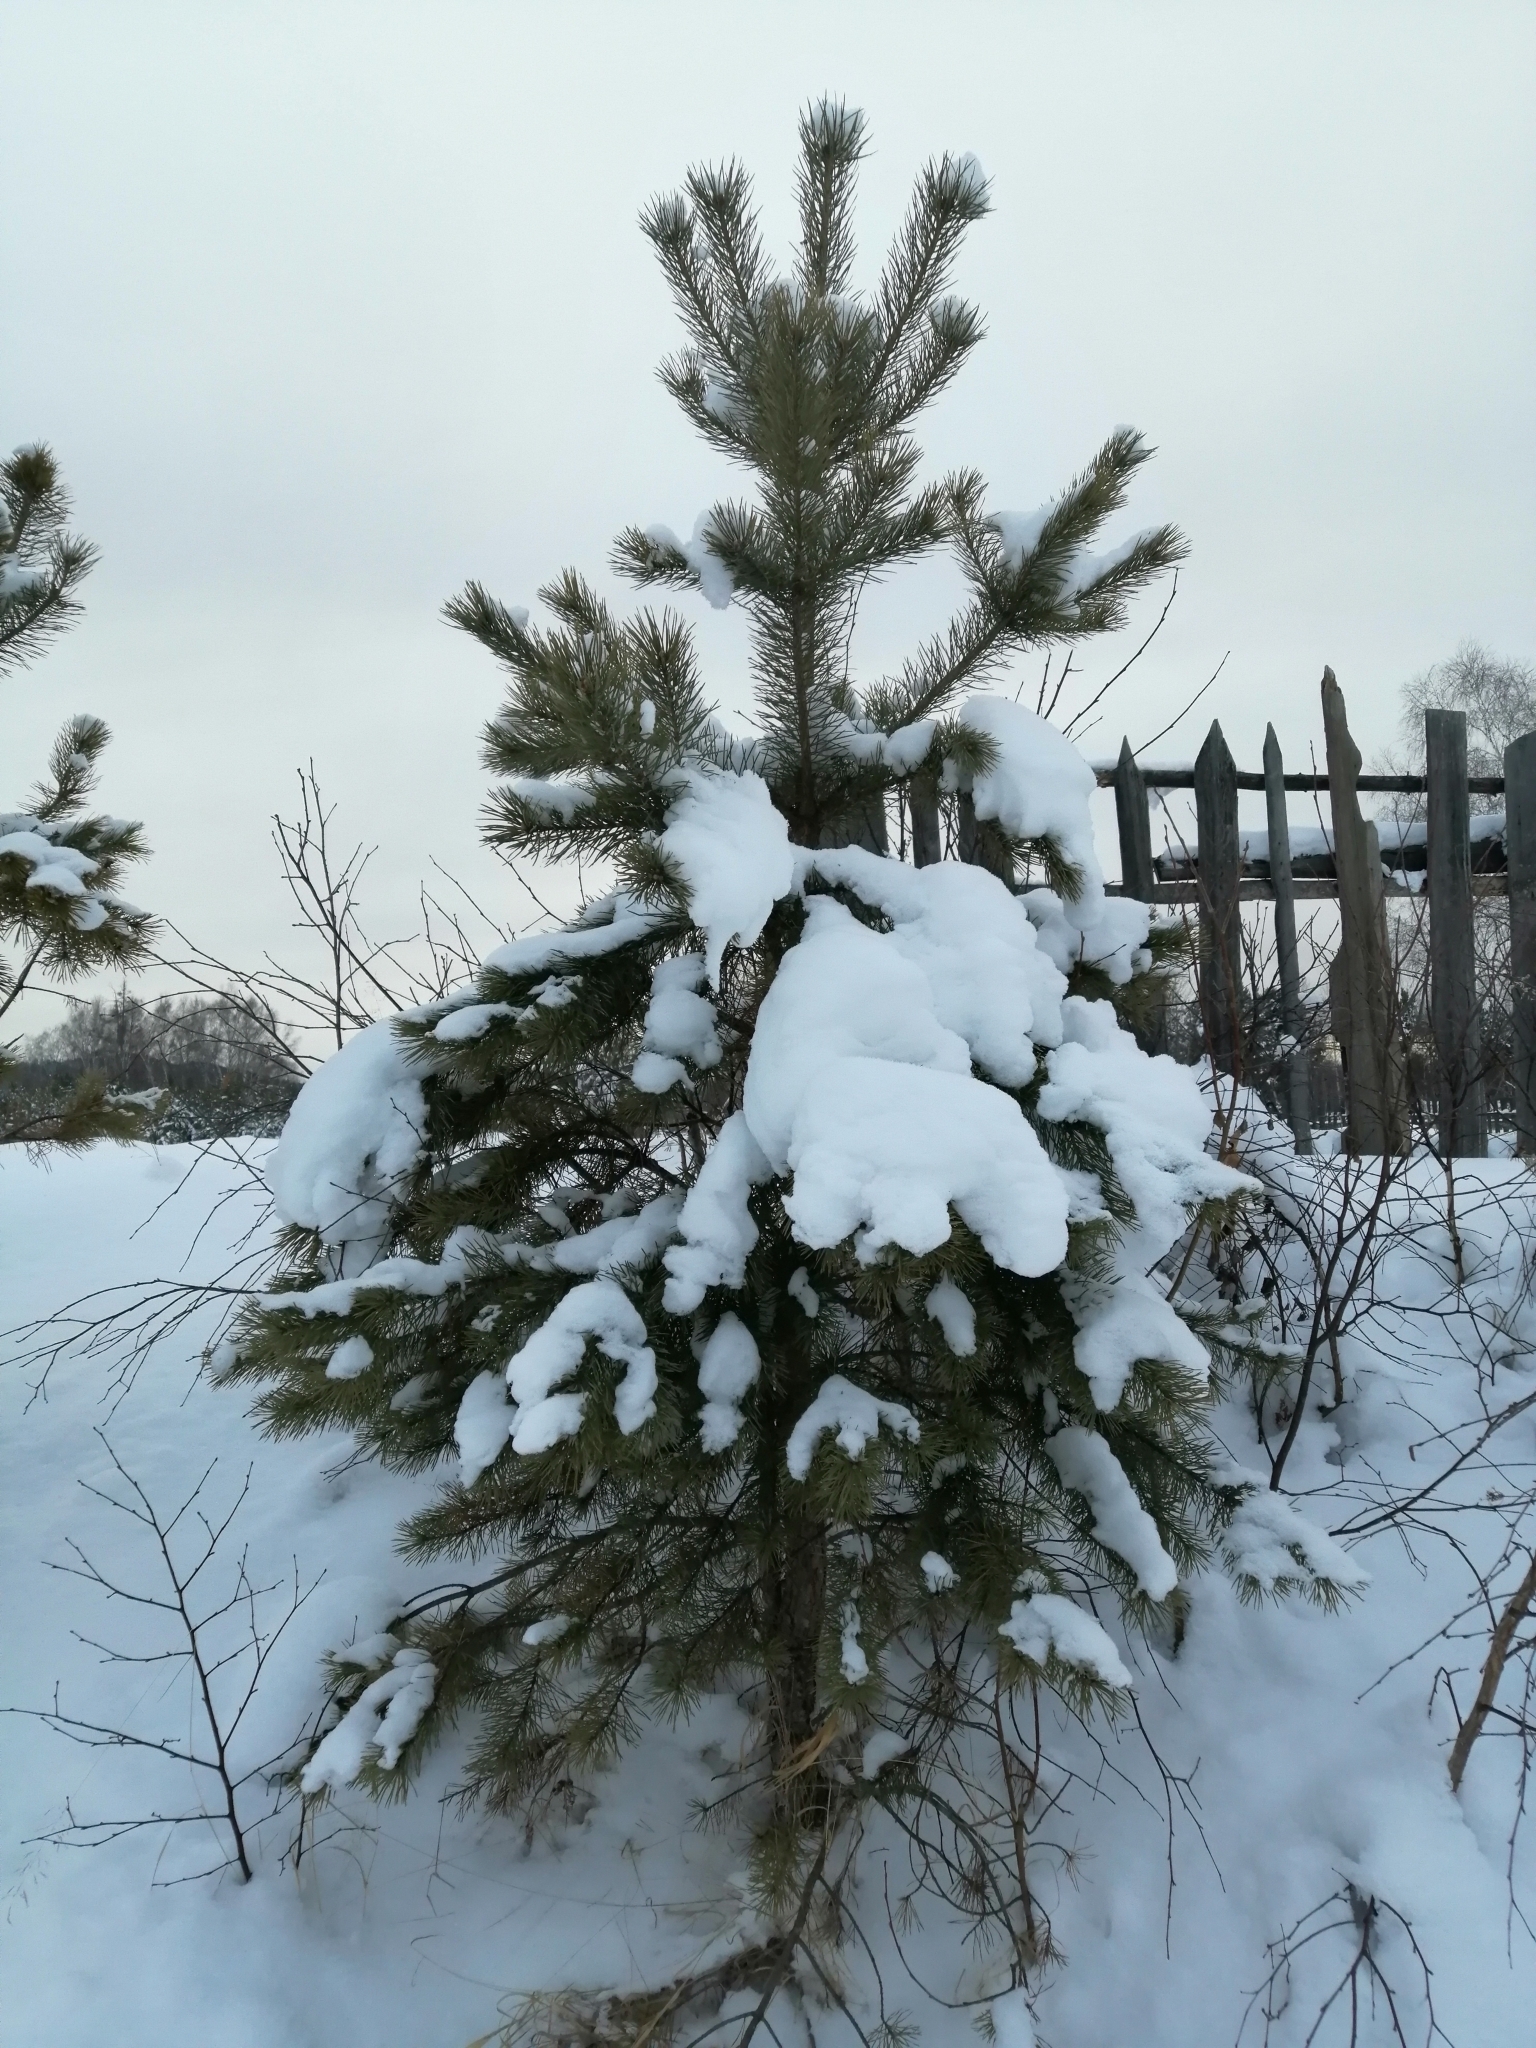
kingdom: Plantae
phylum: Tracheophyta
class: Pinopsida
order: Pinales
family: Pinaceae
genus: Pinus
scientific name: Pinus sylvestris
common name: Scots pine
